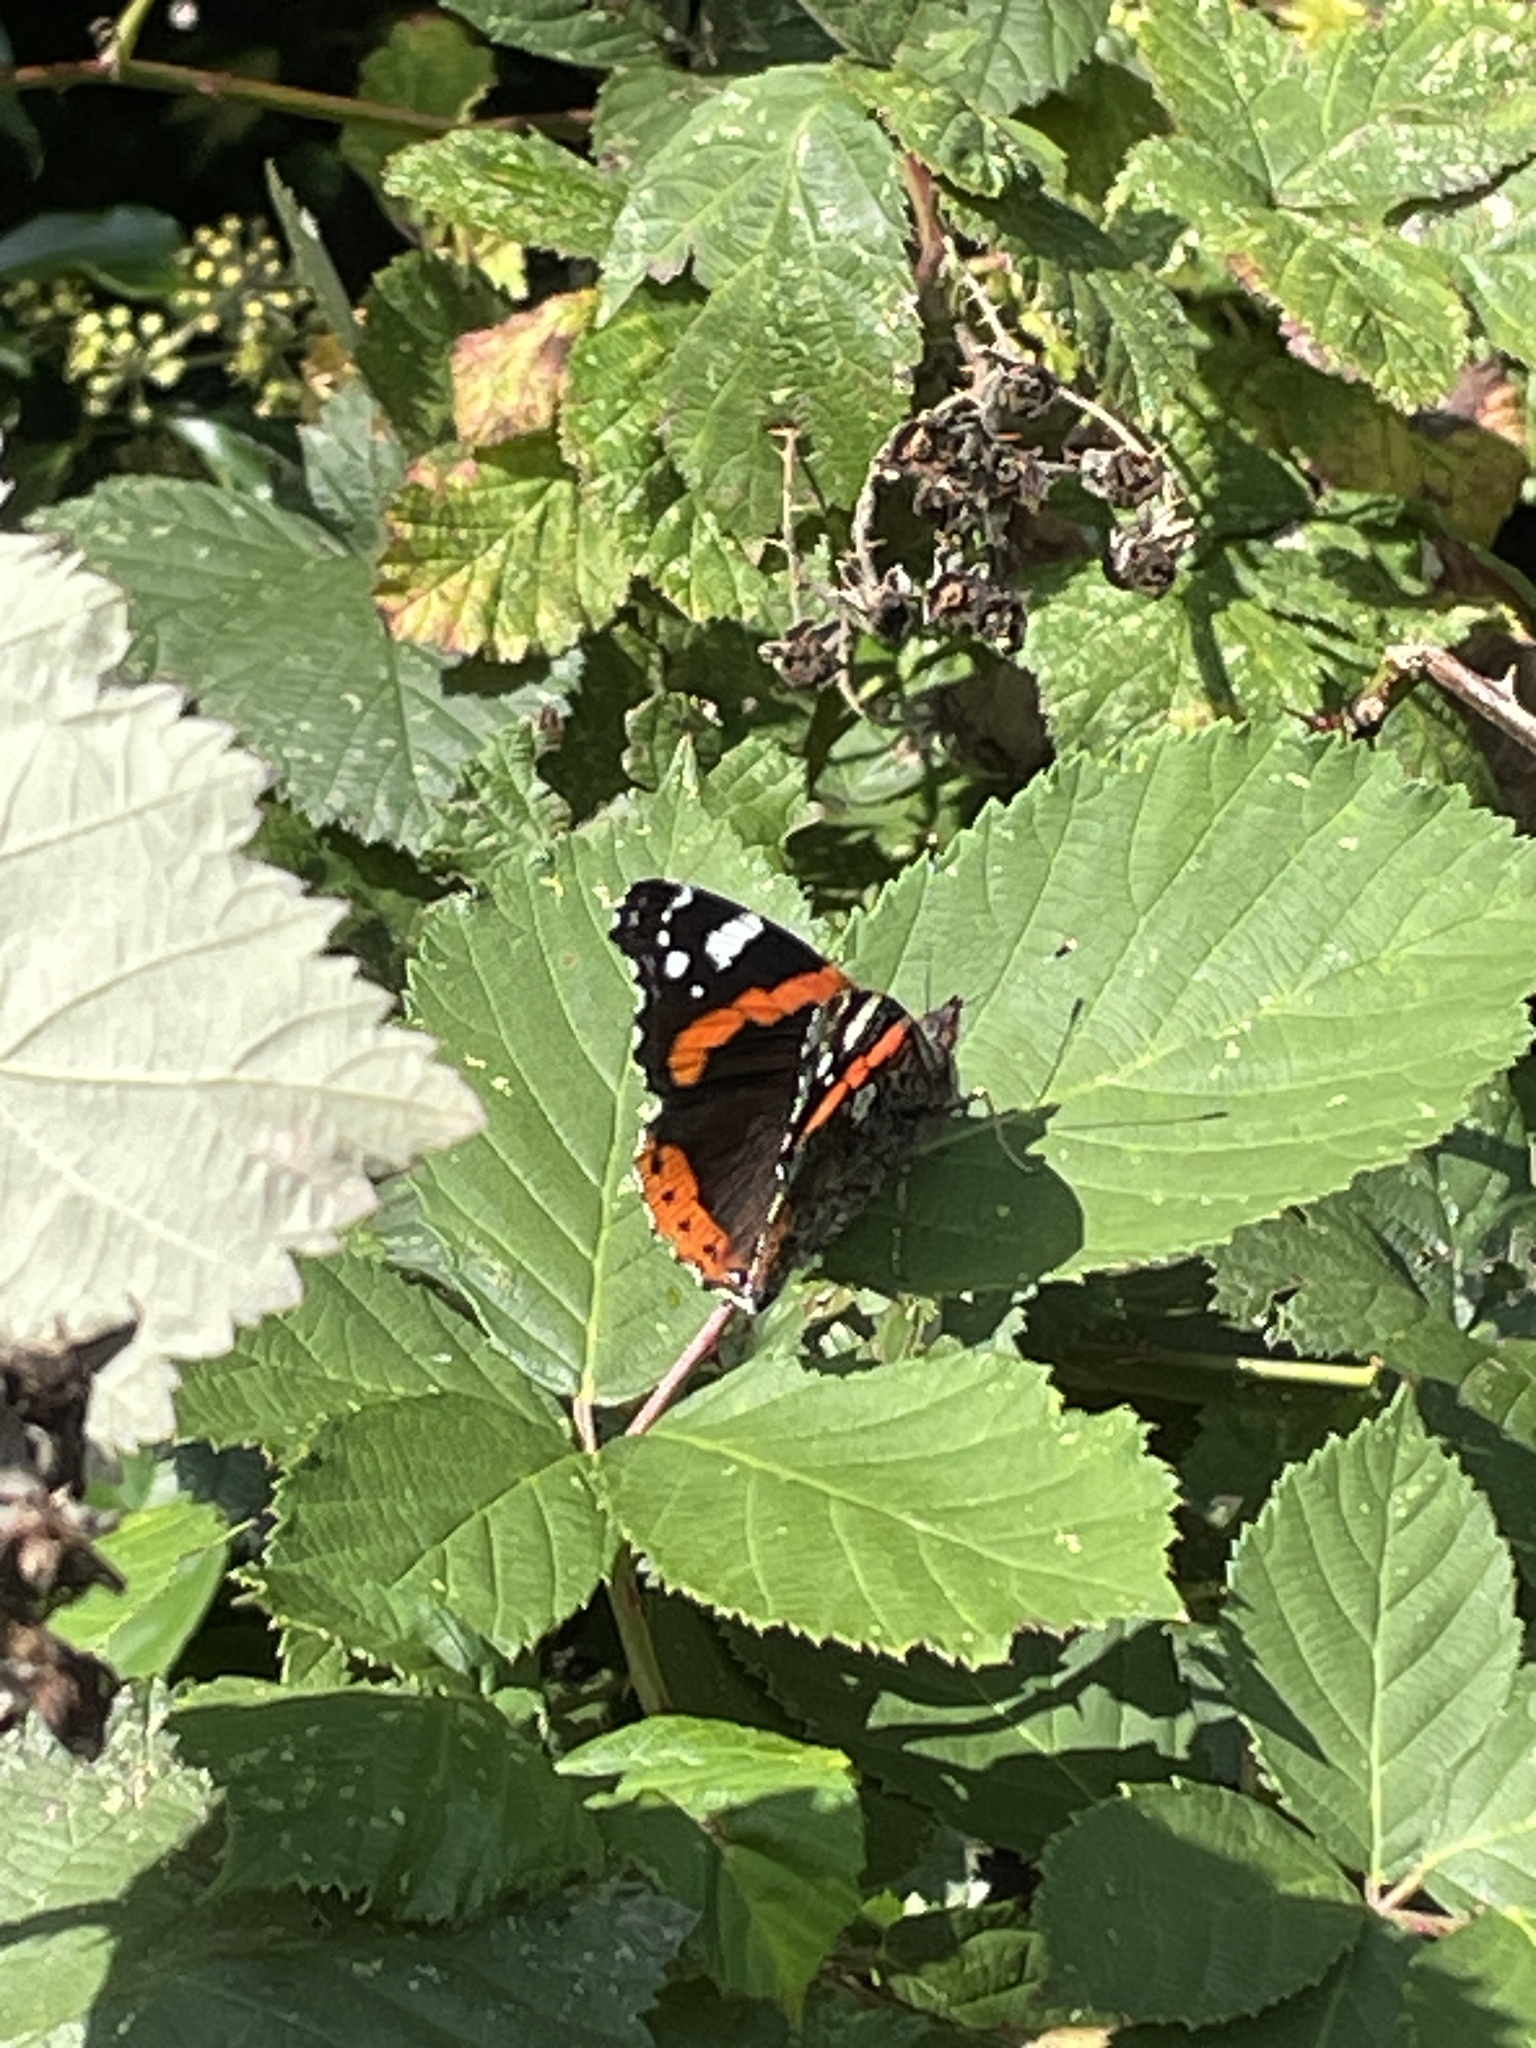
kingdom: Animalia
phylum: Arthropoda
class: Insecta
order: Lepidoptera
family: Nymphalidae
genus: Vanessa
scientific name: Vanessa atalanta
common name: Red admiral
